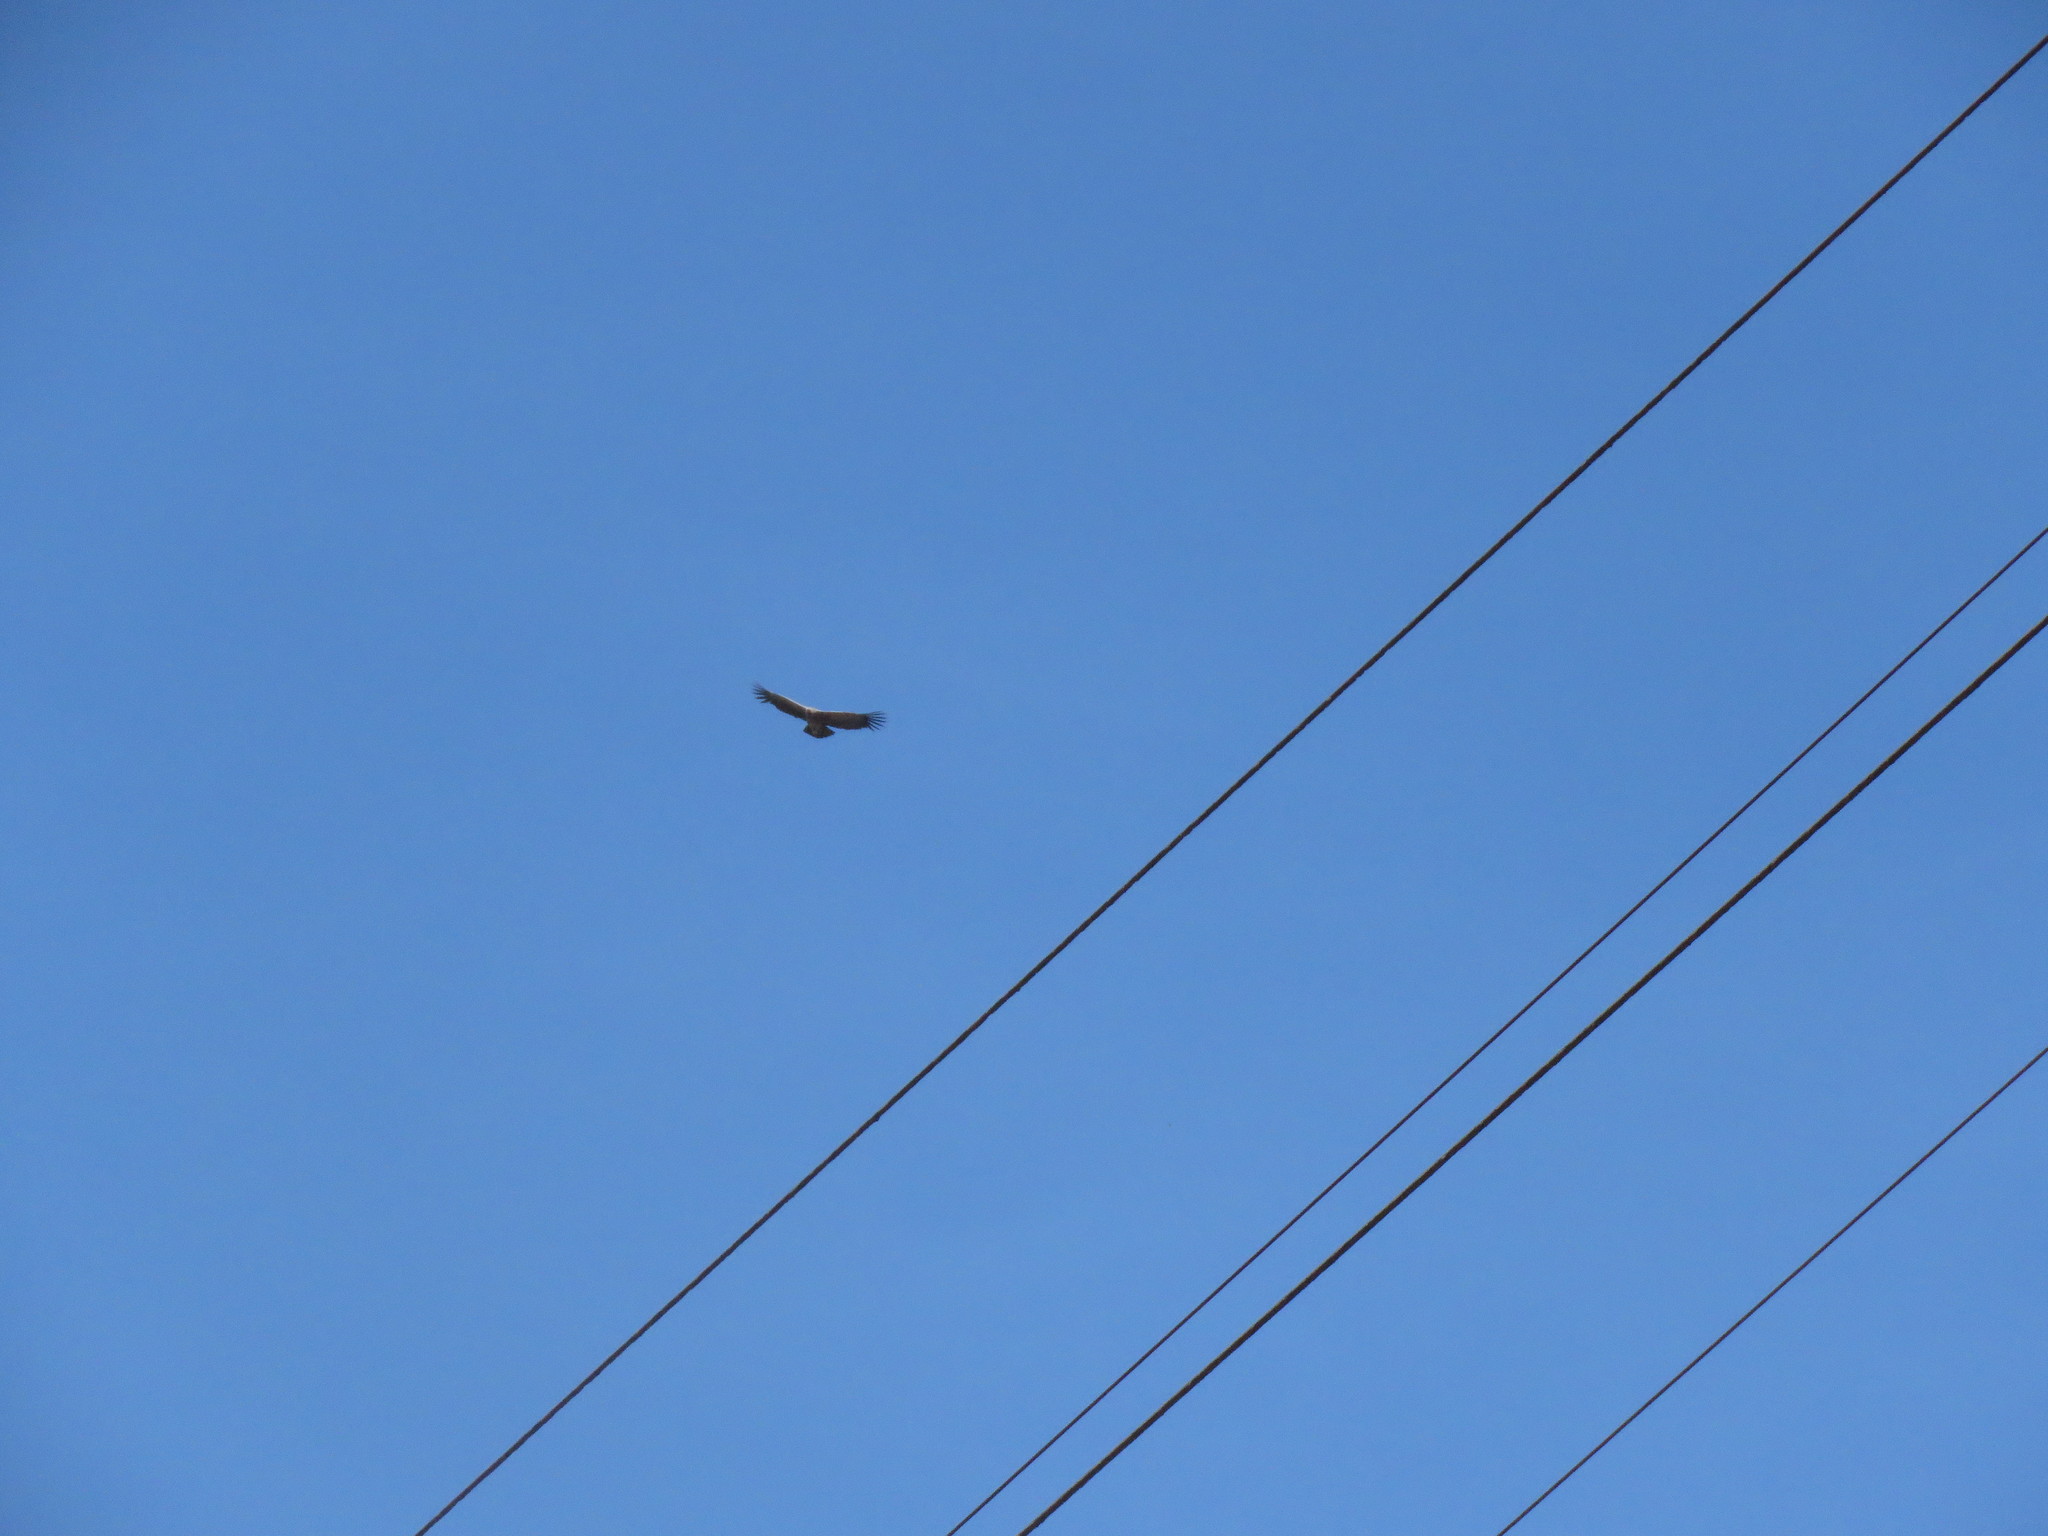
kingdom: Animalia
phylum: Chordata
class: Aves
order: Accipitriformes
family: Cathartidae
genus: Vultur
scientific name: Vultur gryphus
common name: Andean condor
